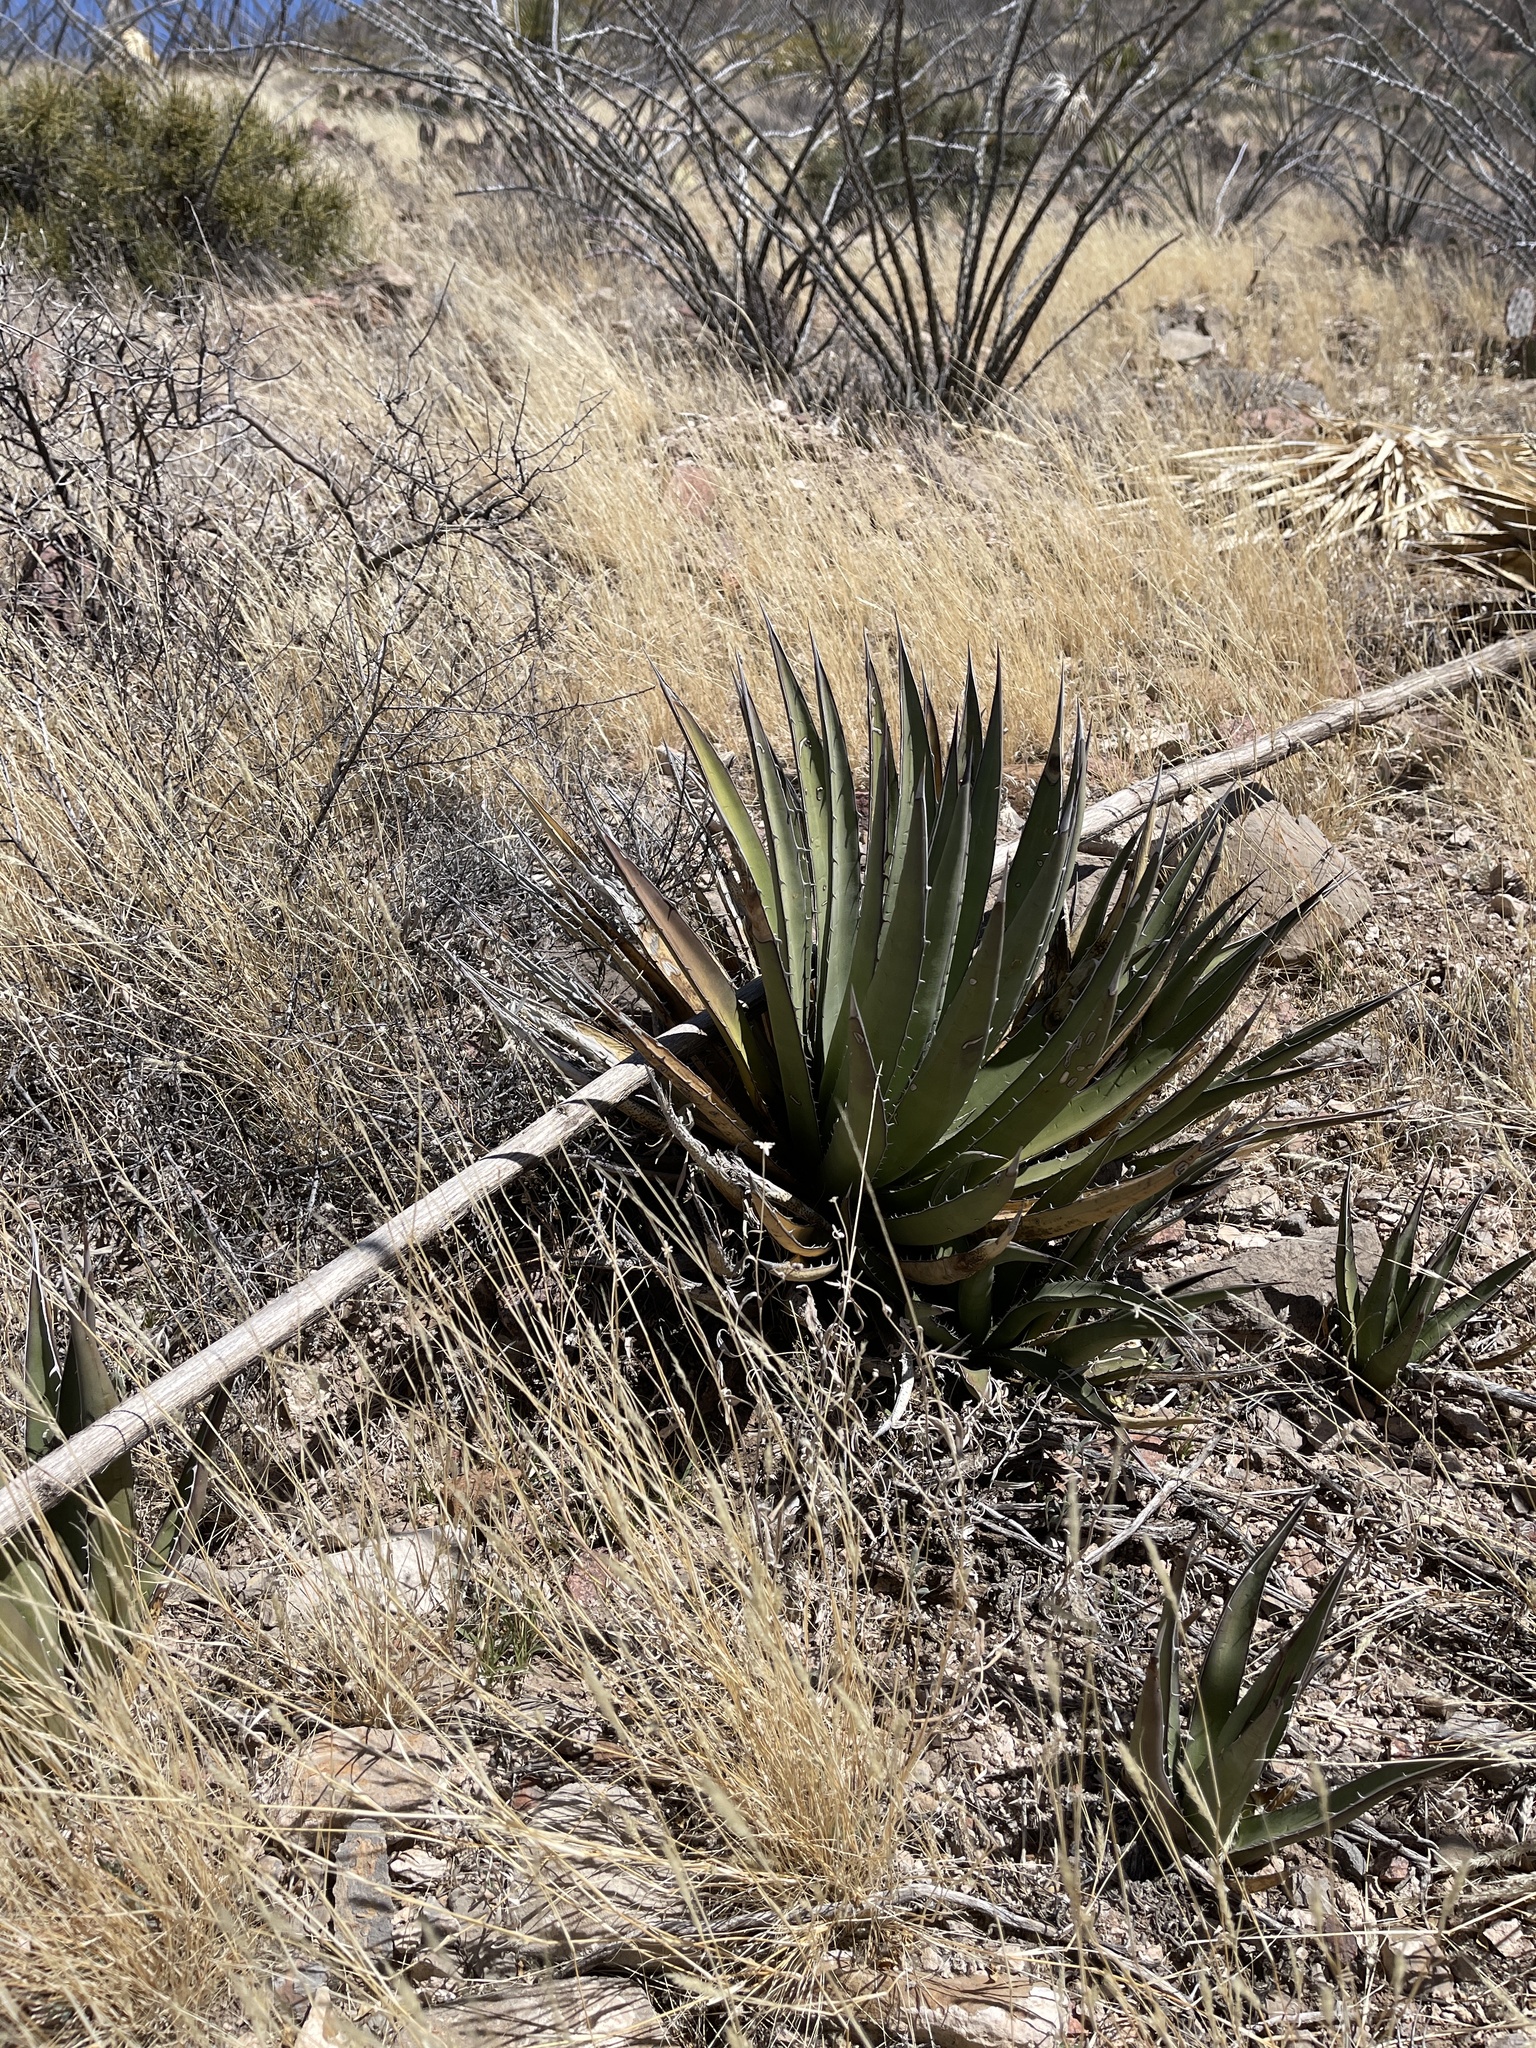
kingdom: Plantae
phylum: Tracheophyta
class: Liliopsida
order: Asparagales
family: Asparagaceae
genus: Agave
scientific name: Agave lechuguilla
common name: Lecheguilla agave
